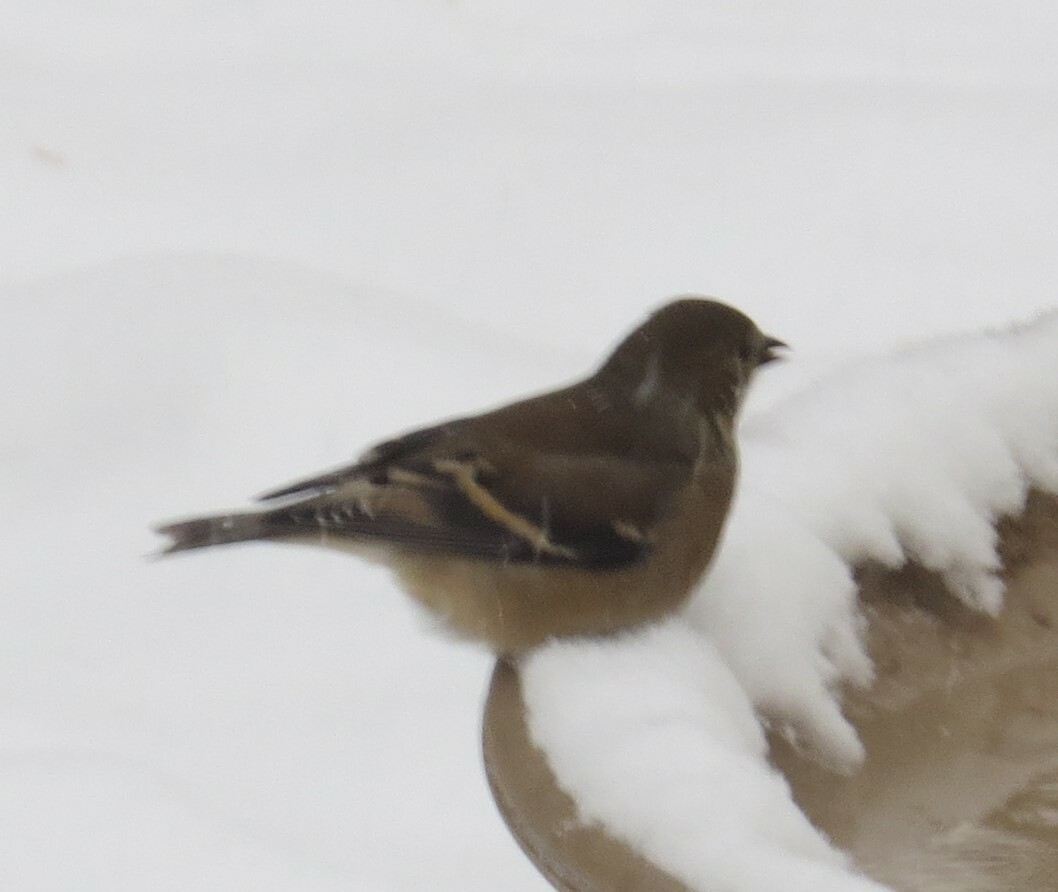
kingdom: Animalia
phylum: Chordata
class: Aves
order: Passeriformes
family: Fringillidae
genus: Spinus
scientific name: Spinus tristis
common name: American goldfinch
